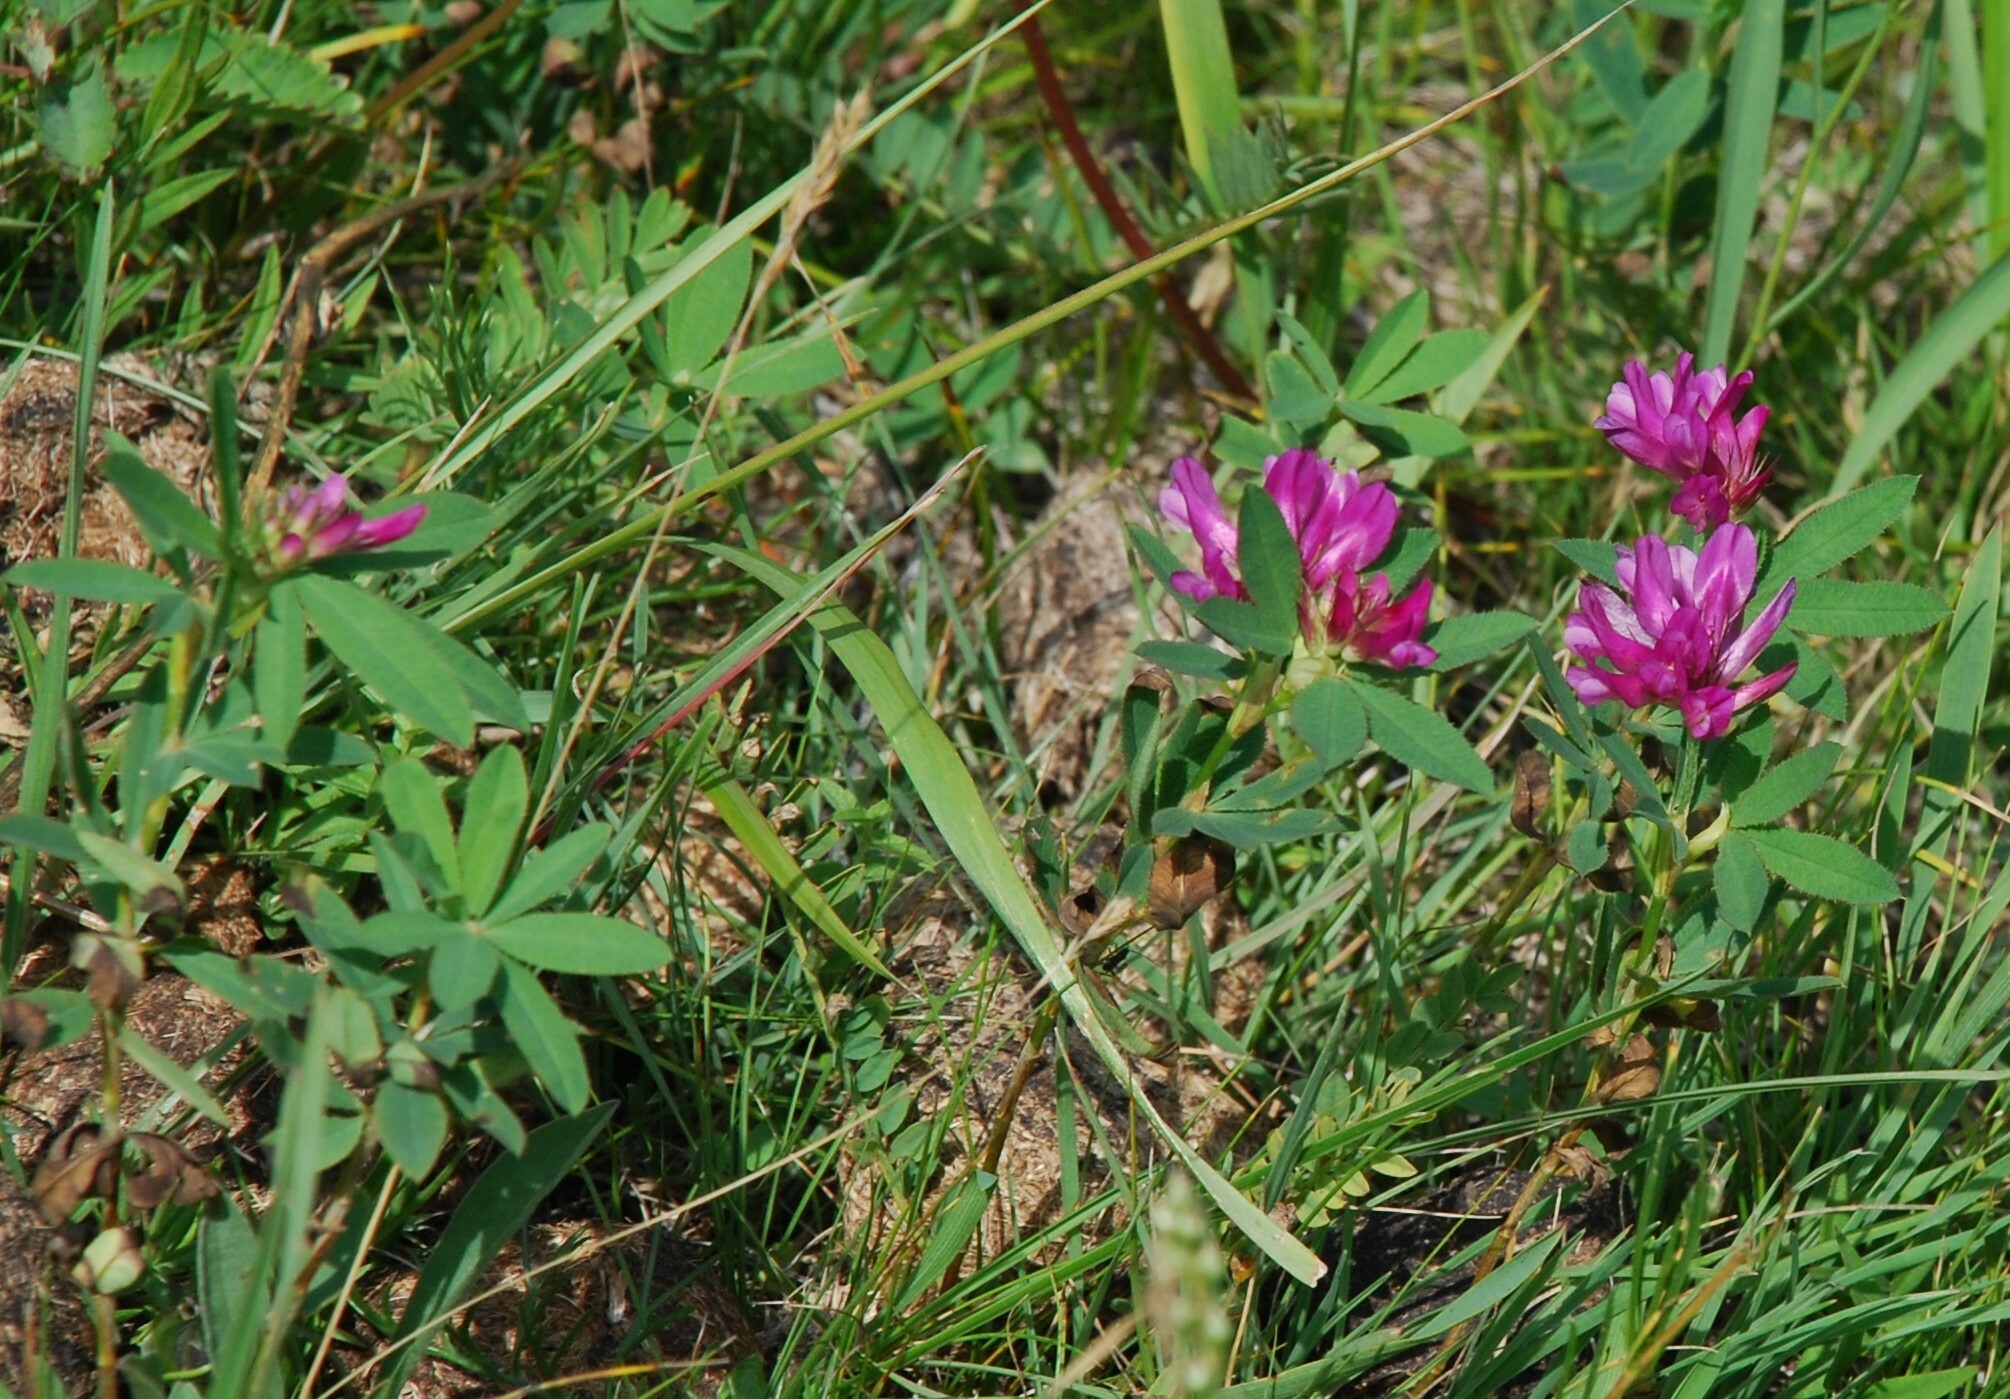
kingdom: Plantae
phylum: Tracheophyta
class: Magnoliopsida
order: Fabales
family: Fabaceae
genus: Trifolium
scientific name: Trifolium lupinaster
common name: Lupine clover
